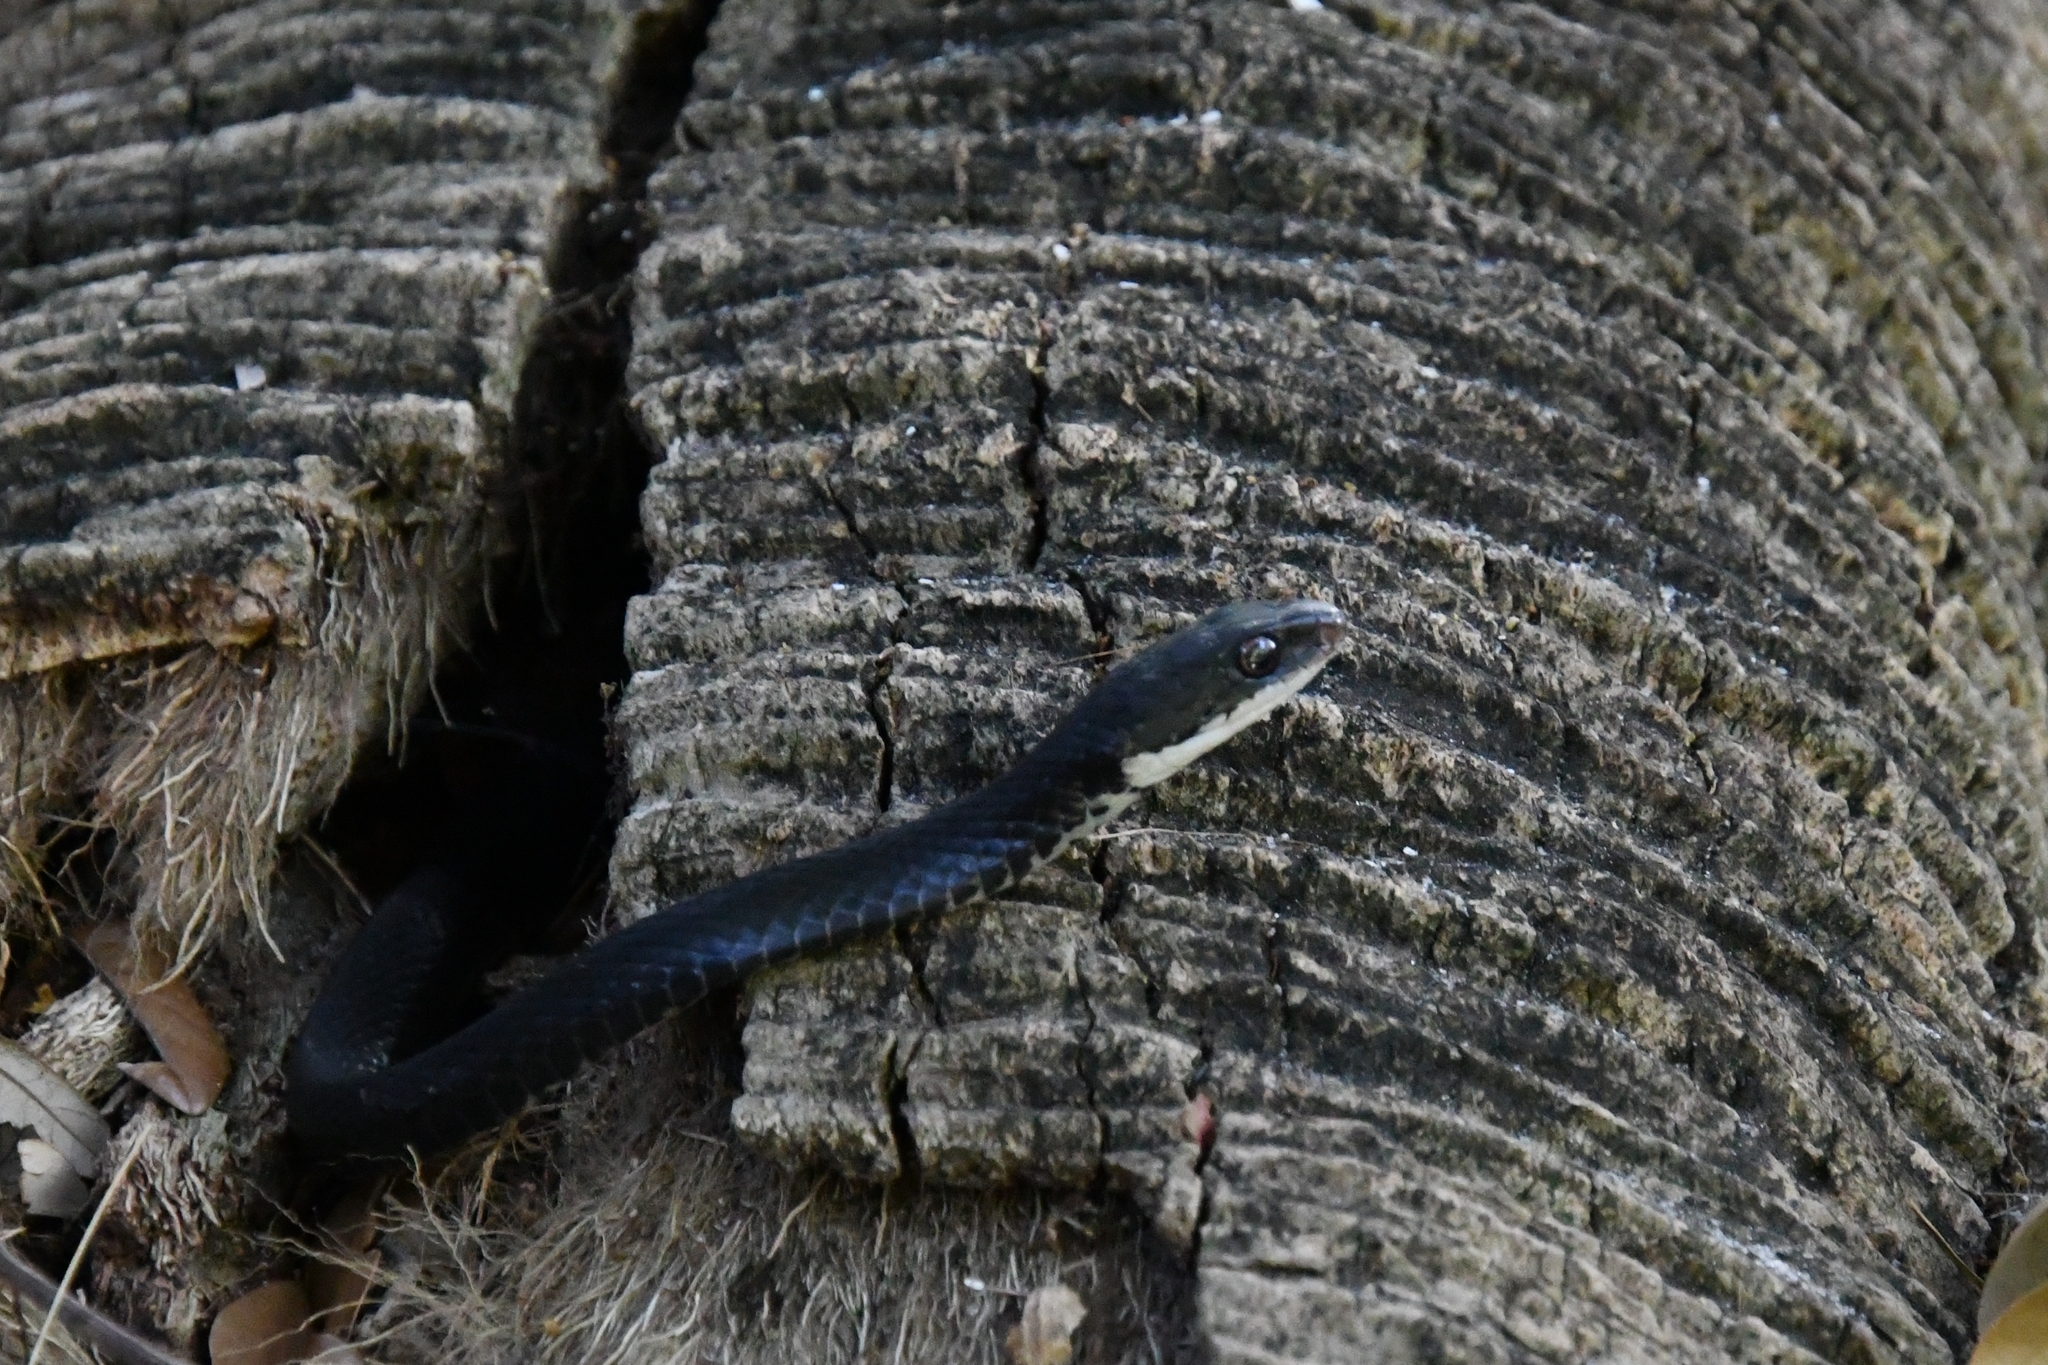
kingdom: Animalia
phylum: Chordata
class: Squamata
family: Colubridae
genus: Coluber
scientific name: Coluber constrictor
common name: Eastern racer
